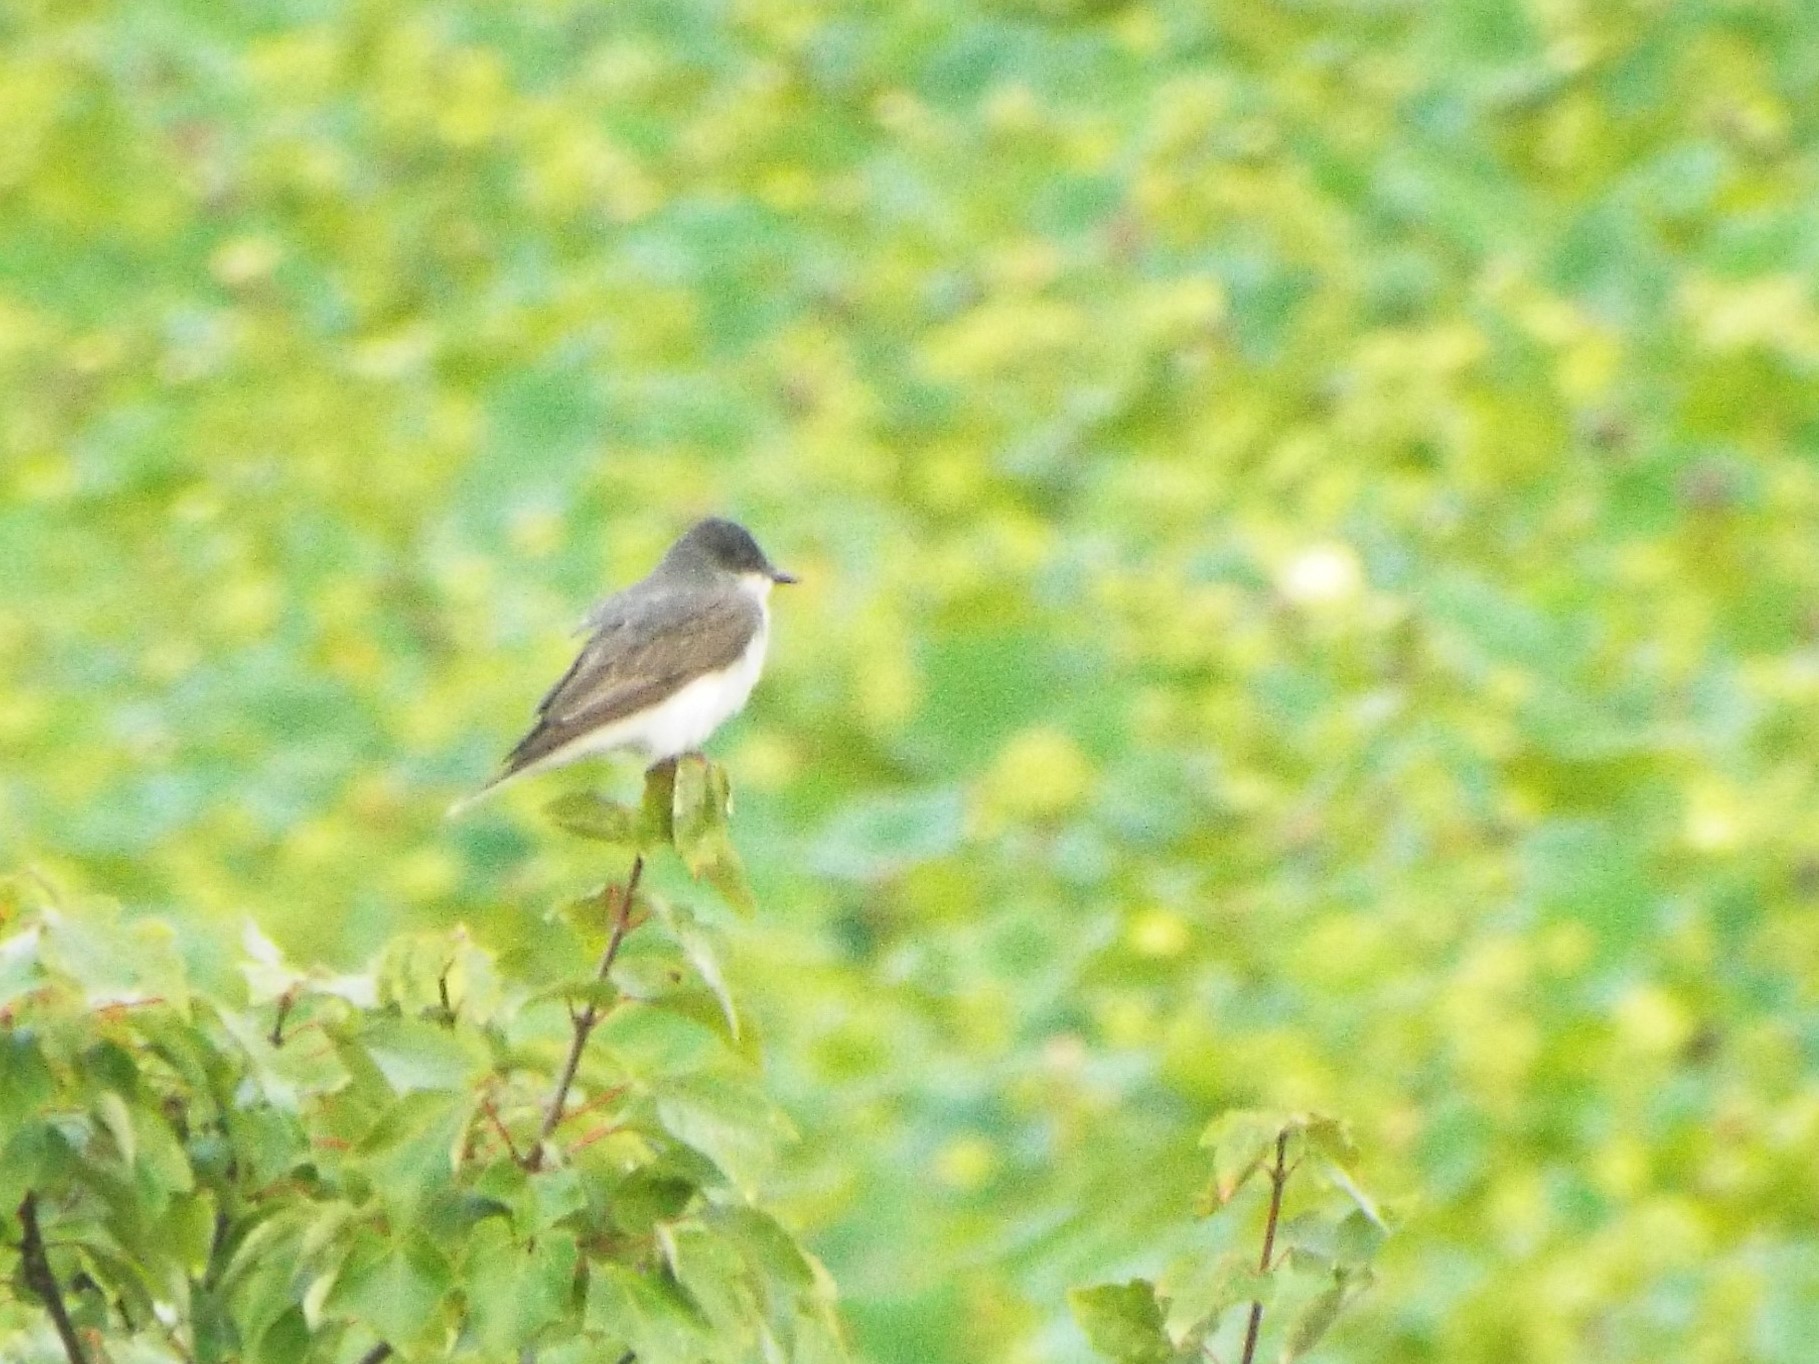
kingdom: Animalia
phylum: Chordata
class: Aves
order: Passeriformes
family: Tyrannidae
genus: Tyrannus
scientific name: Tyrannus tyrannus
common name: Eastern kingbird
